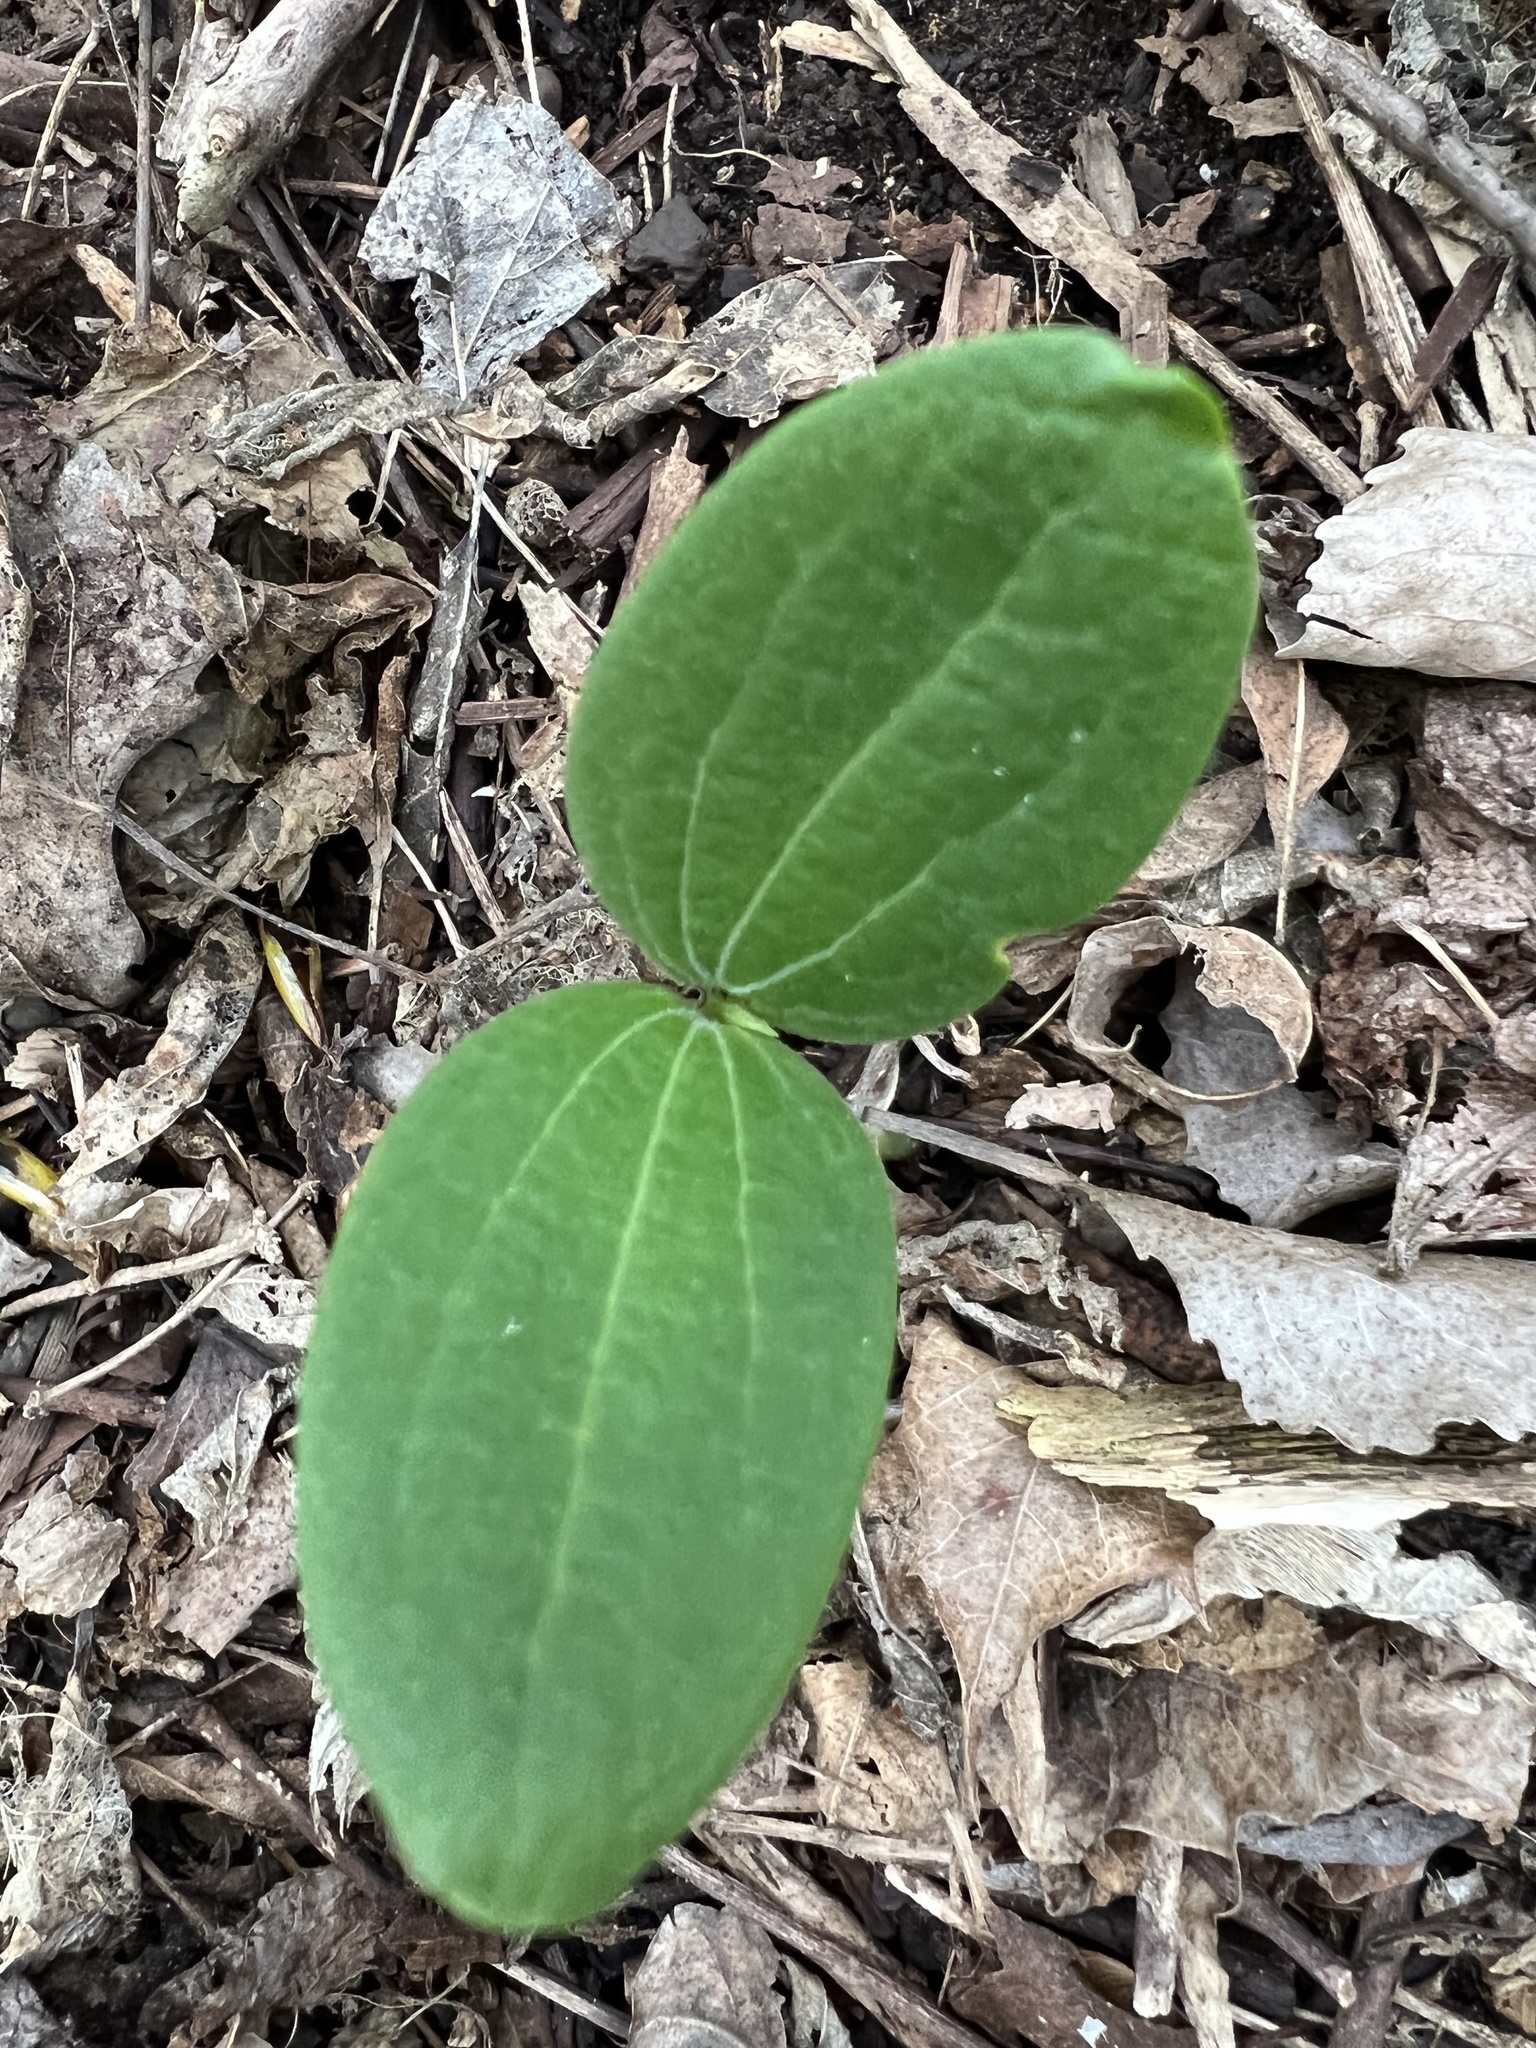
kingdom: Plantae
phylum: Tracheophyta
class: Magnoliopsida
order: Cucurbitales
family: Cucurbitaceae
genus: Echinocystis
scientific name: Echinocystis lobata
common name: Wild cucumber
